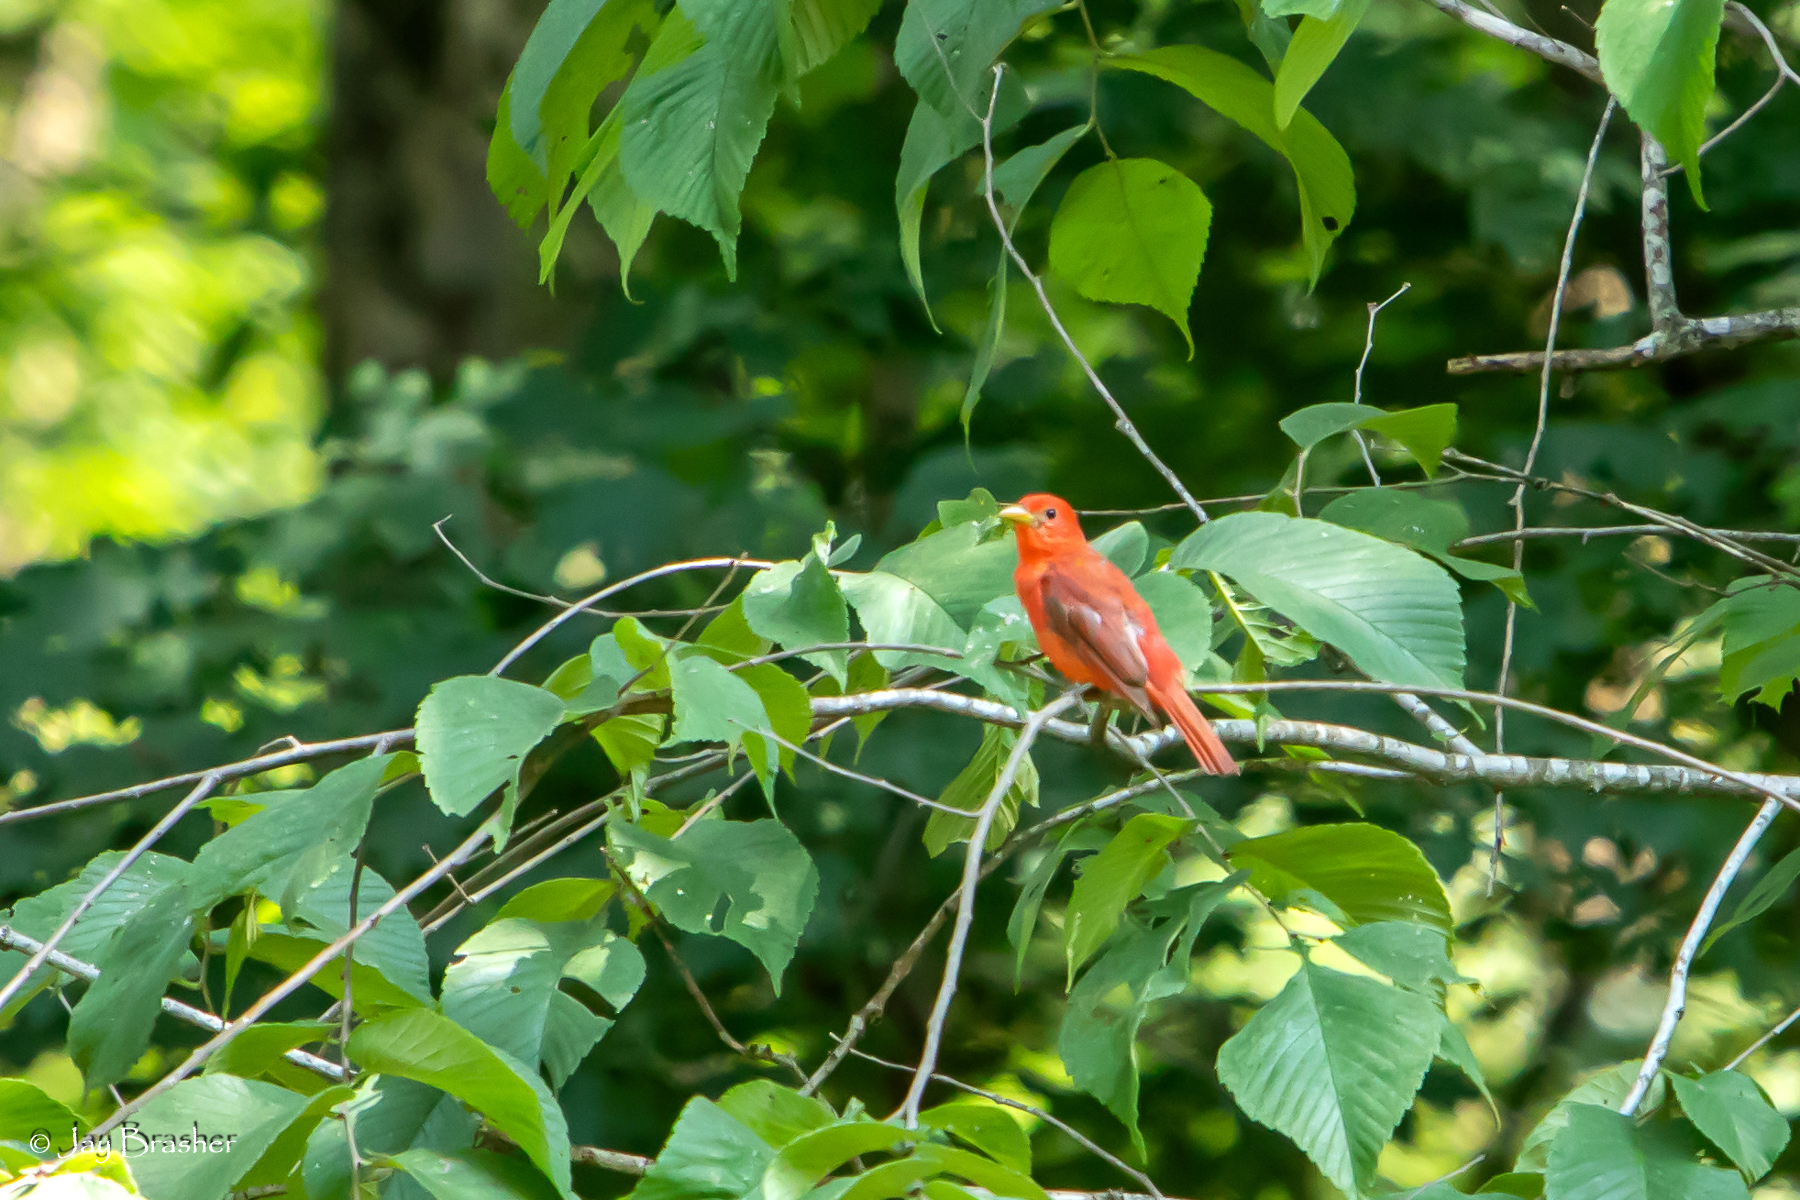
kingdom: Animalia
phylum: Chordata
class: Aves
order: Passeriformes
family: Cardinalidae
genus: Piranga
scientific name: Piranga rubra
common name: Summer tanager
